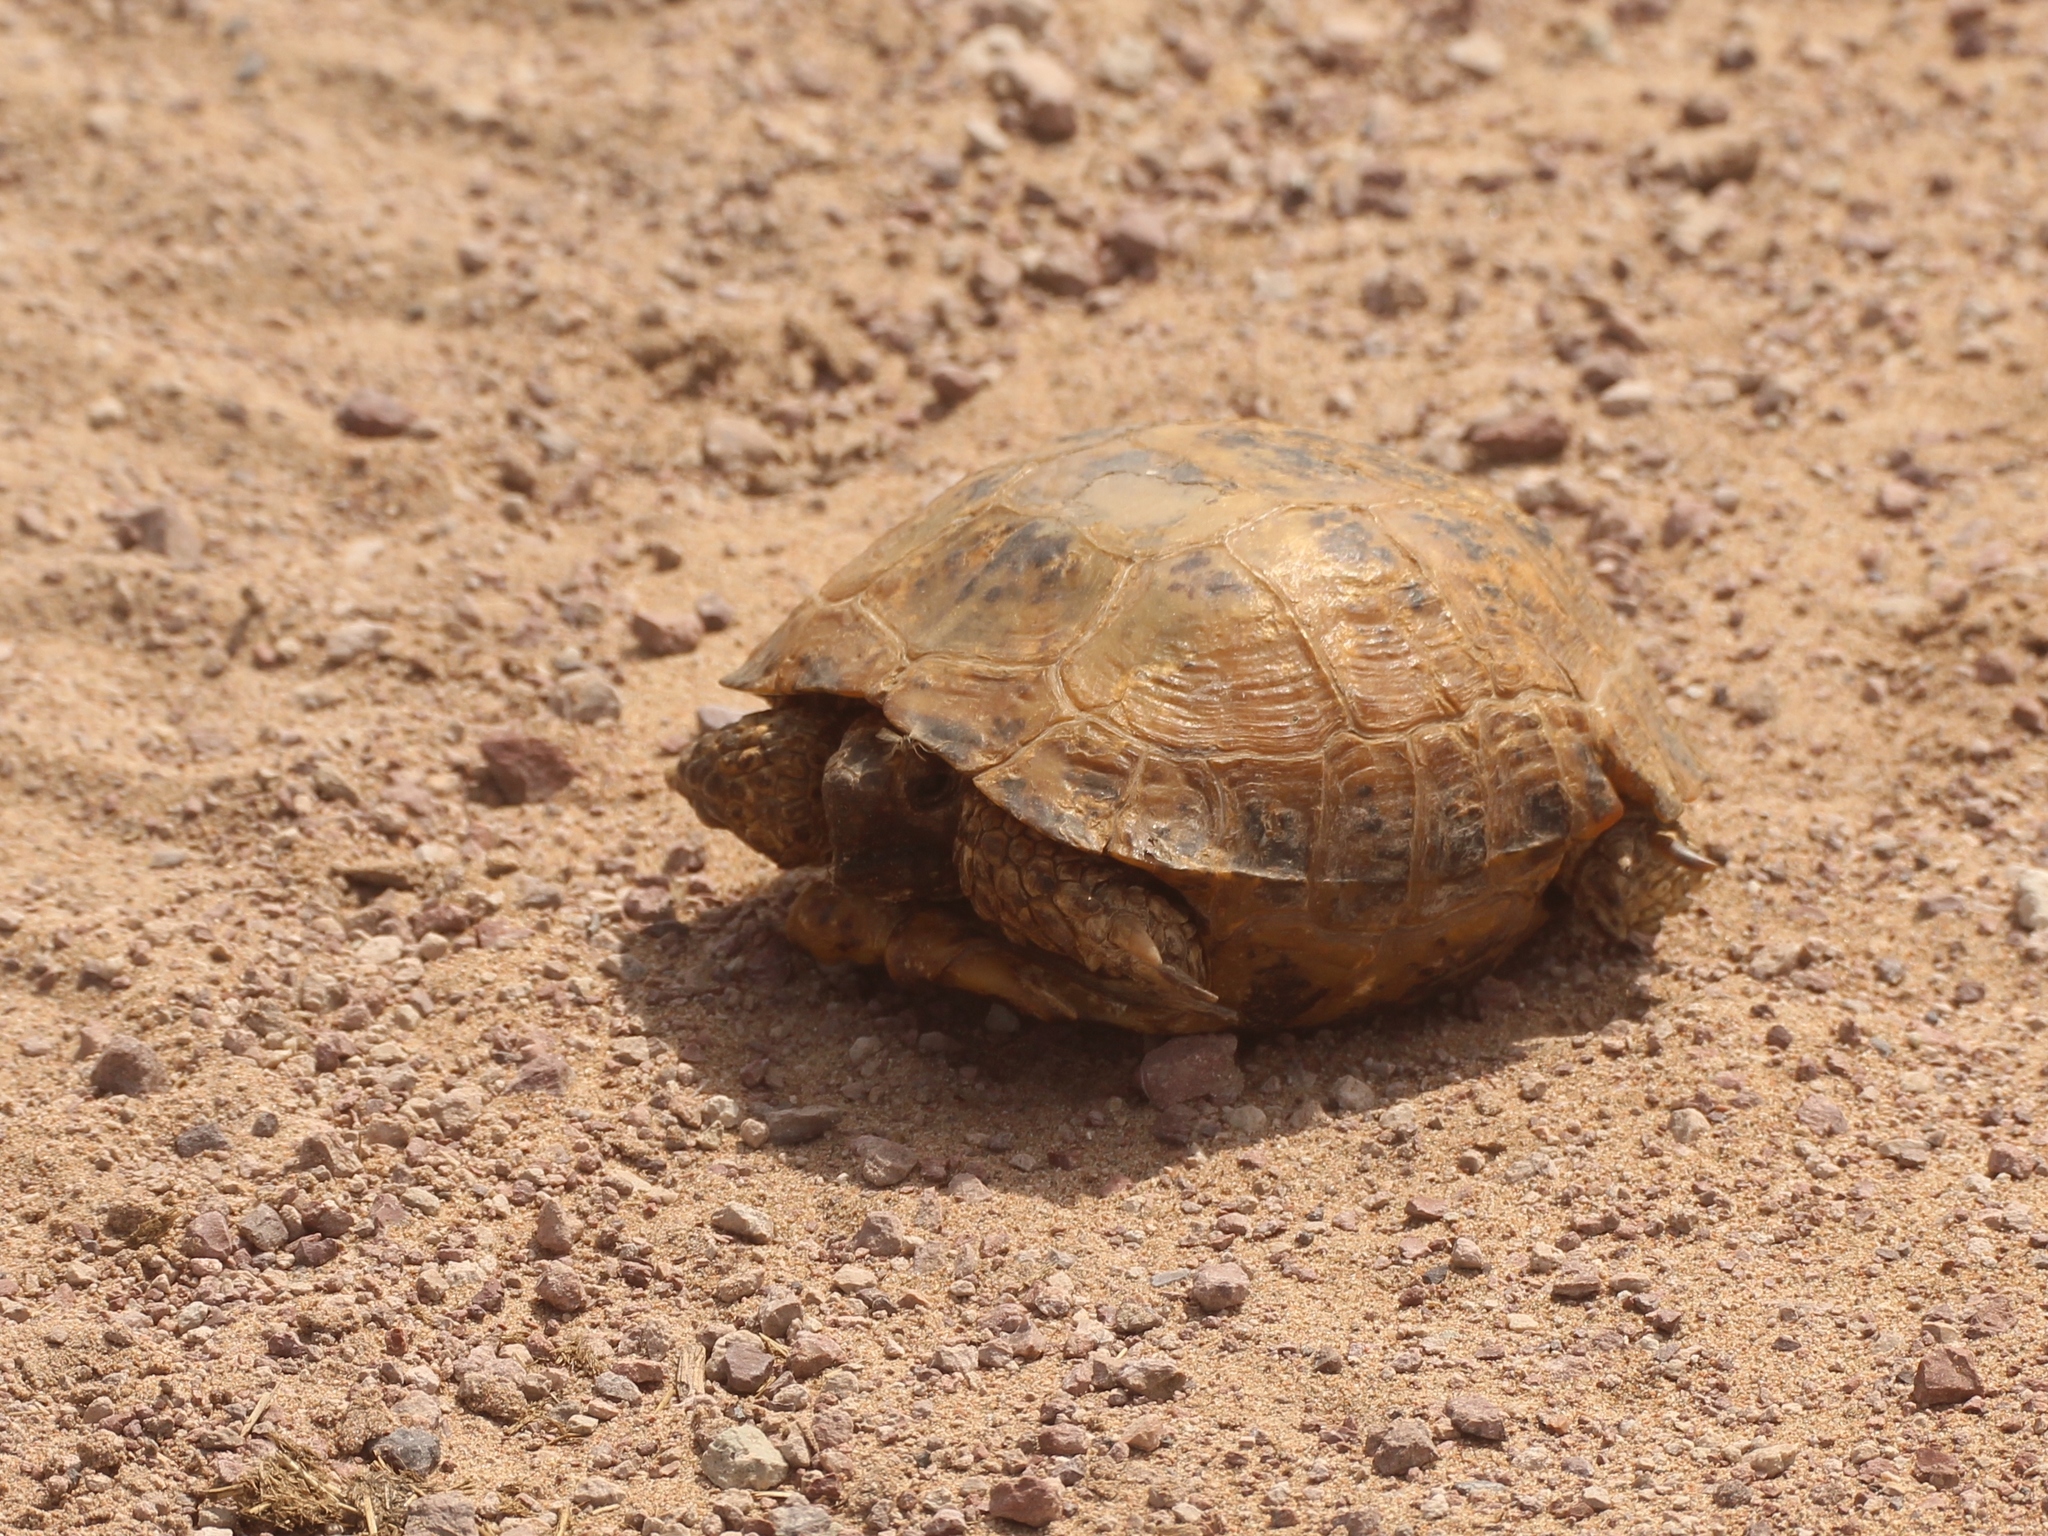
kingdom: Animalia
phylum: Chordata
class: Testudines
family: Testudinidae
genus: Testudo
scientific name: Testudo horsfieldii
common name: Central asia tortoise
